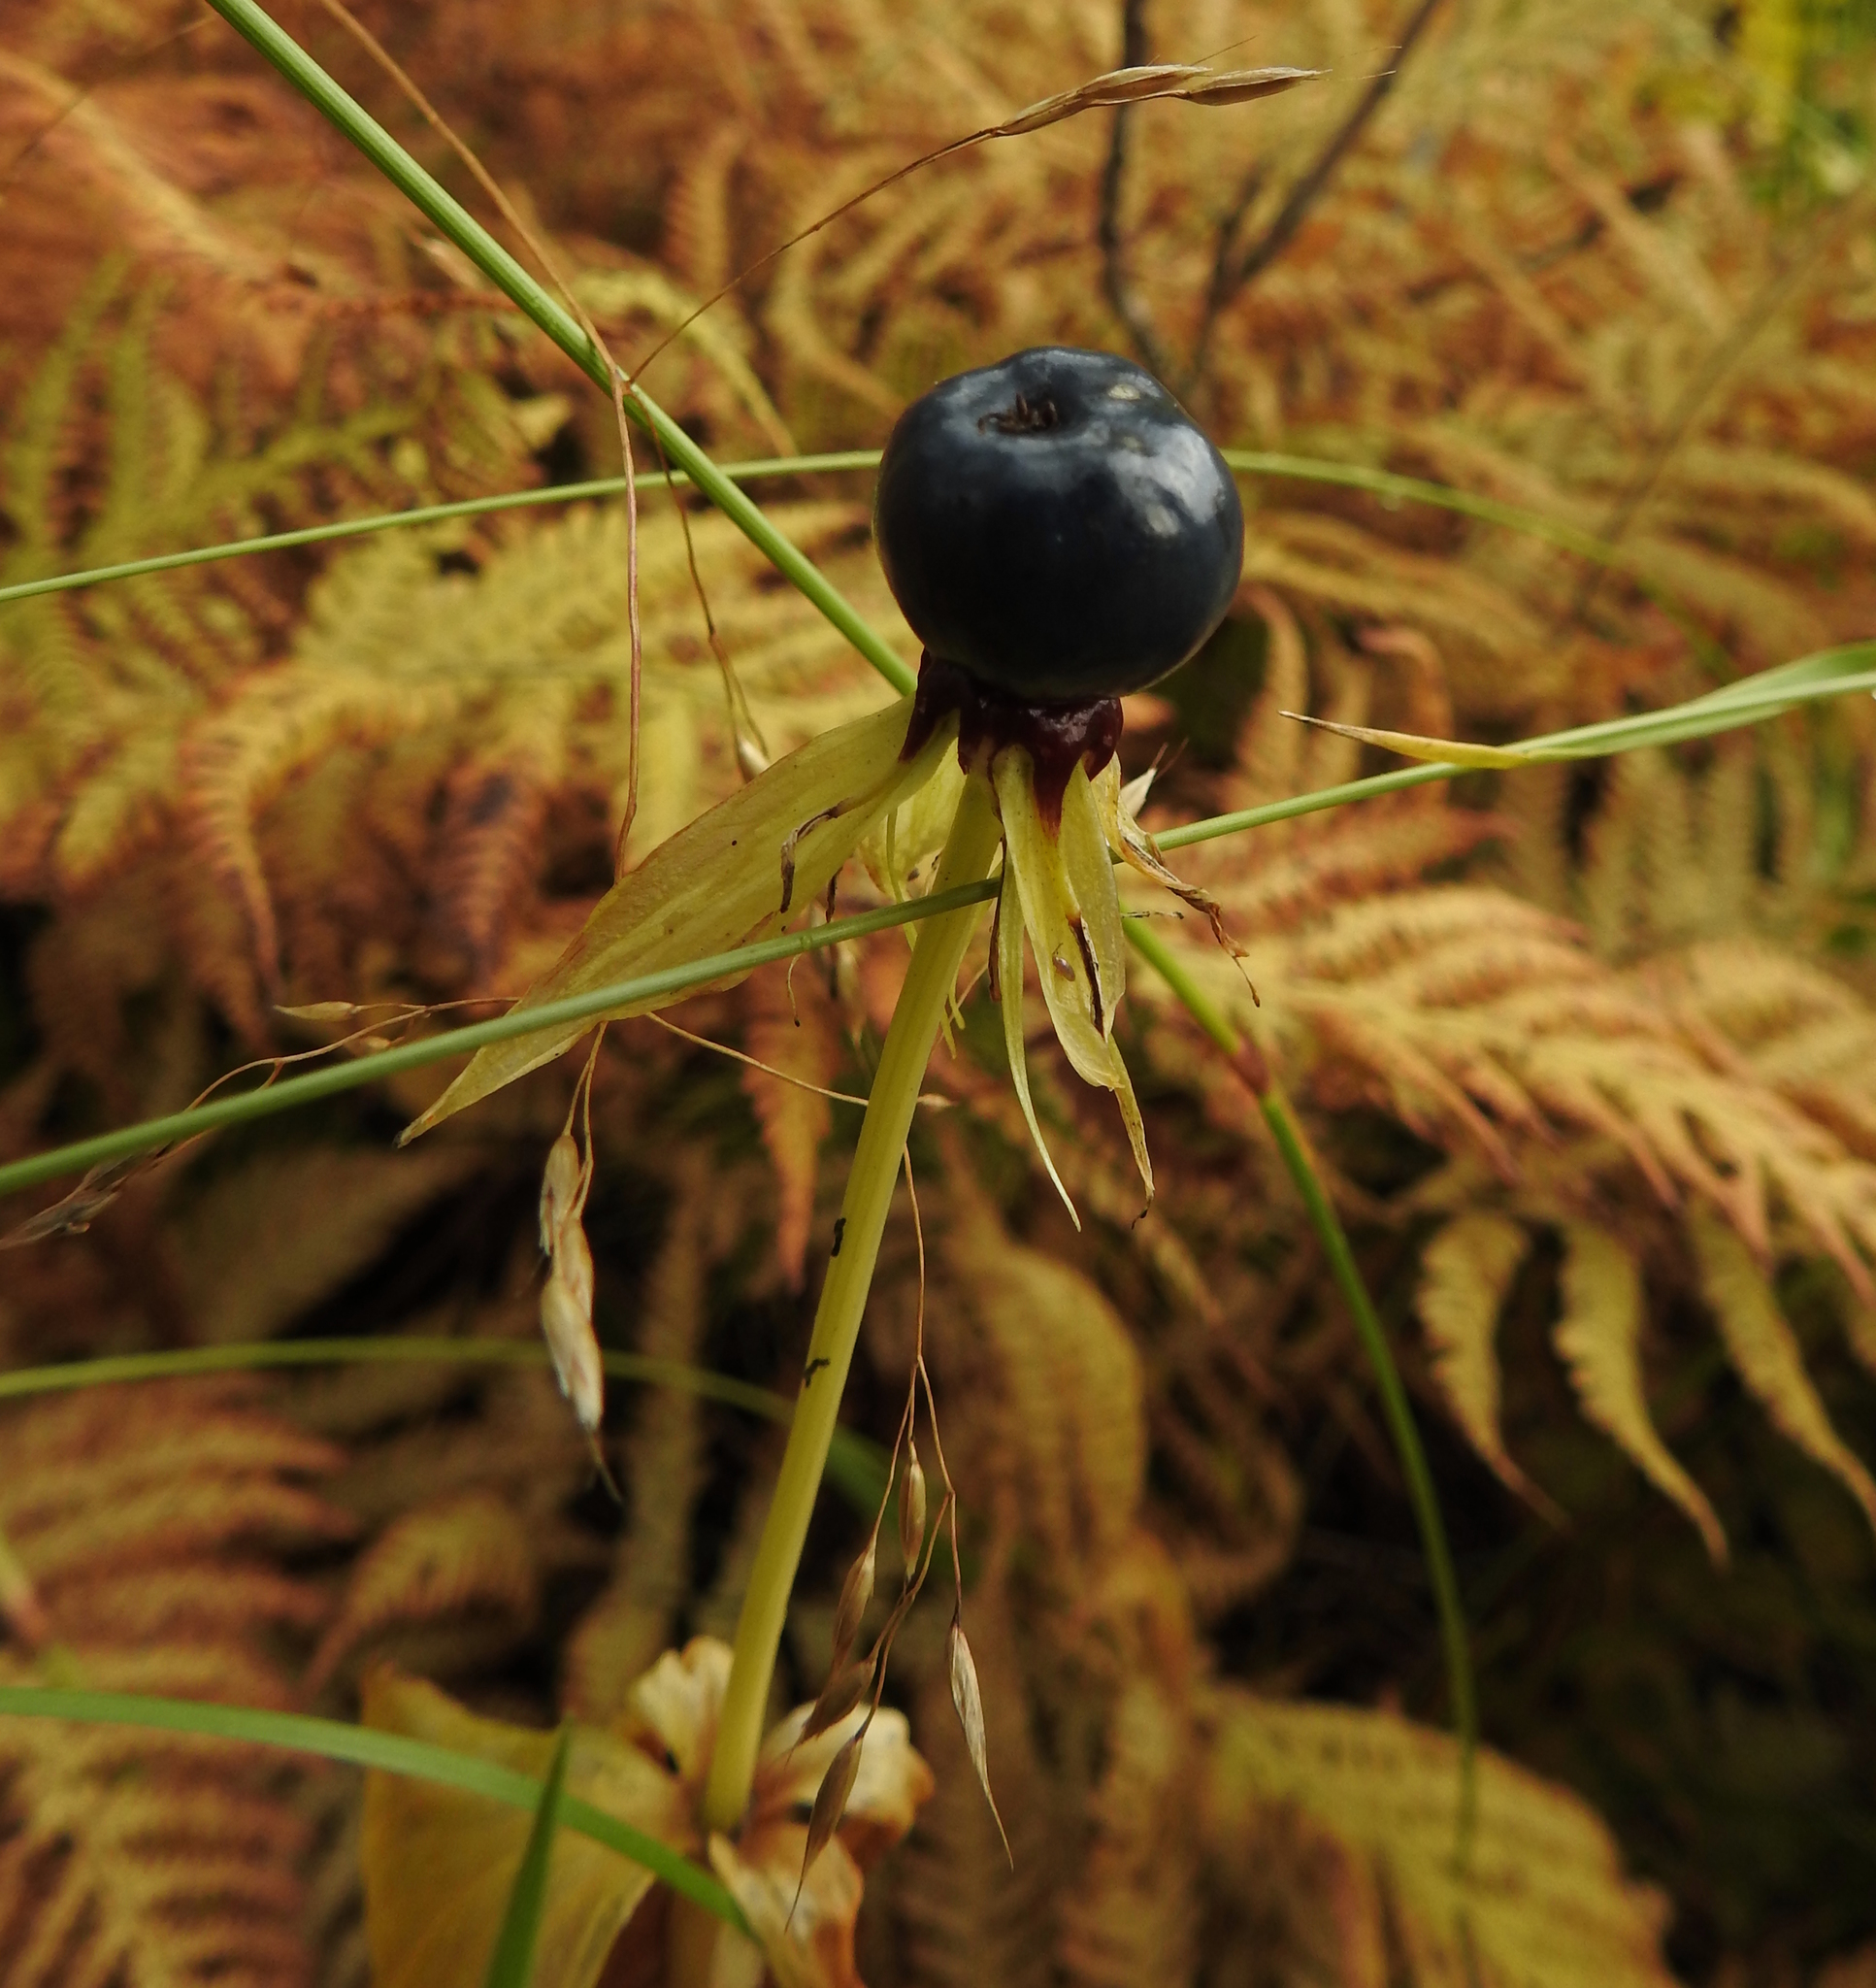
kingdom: Plantae
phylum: Tracheophyta
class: Liliopsida
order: Liliales
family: Melanthiaceae
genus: Paris
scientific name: Paris quadrifolia
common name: Herb-paris
